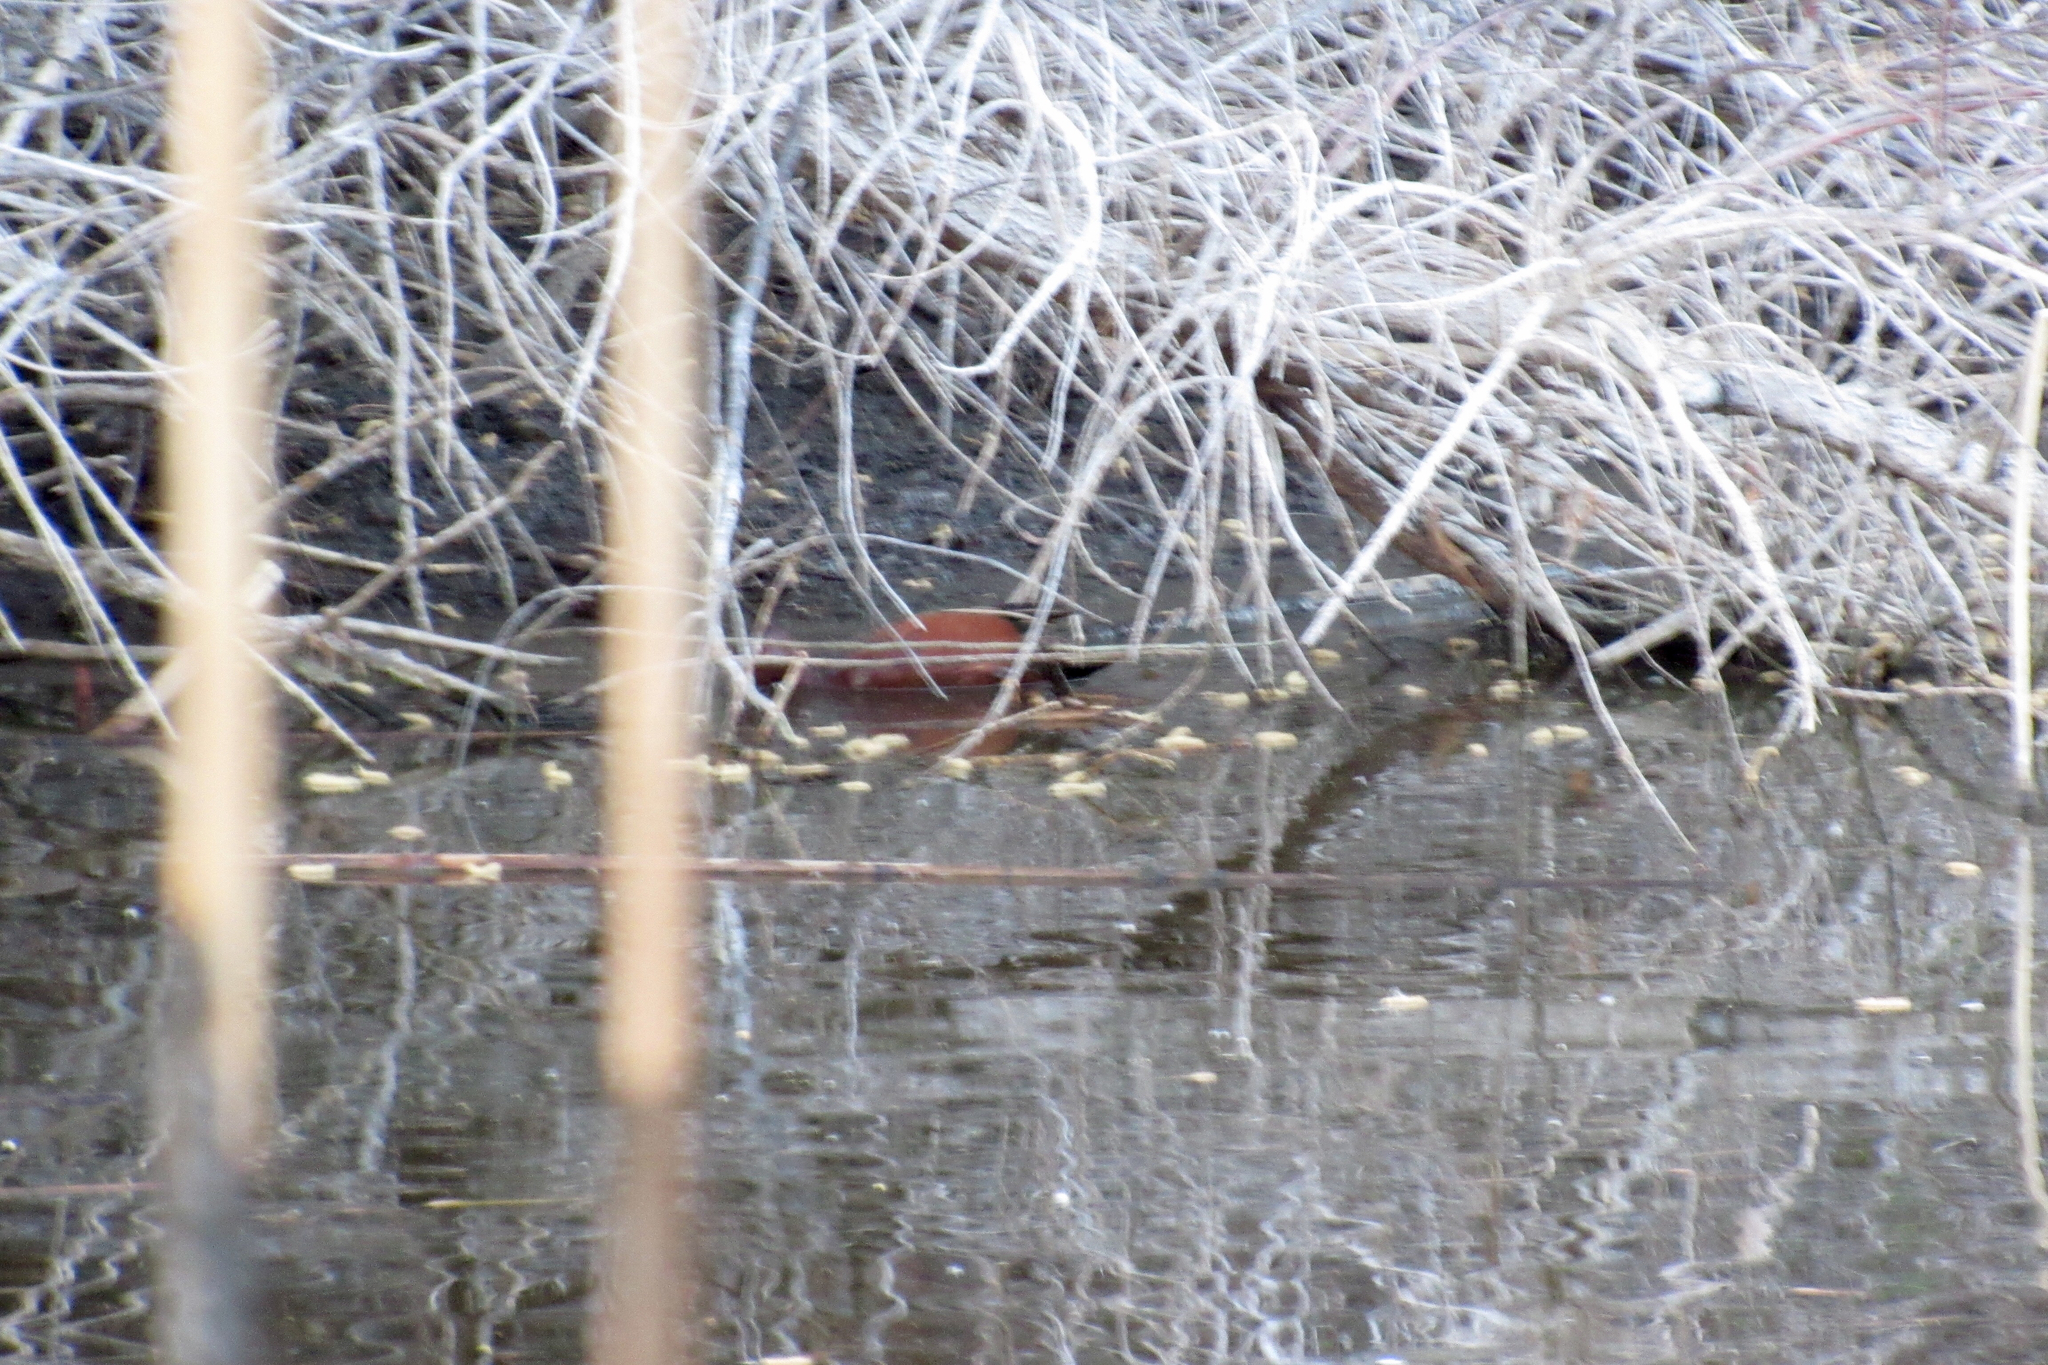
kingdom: Animalia
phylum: Chordata
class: Aves
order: Anseriformes
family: Anatidae
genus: Spatula
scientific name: Spatula cyanoptera
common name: Cinnamon teal
